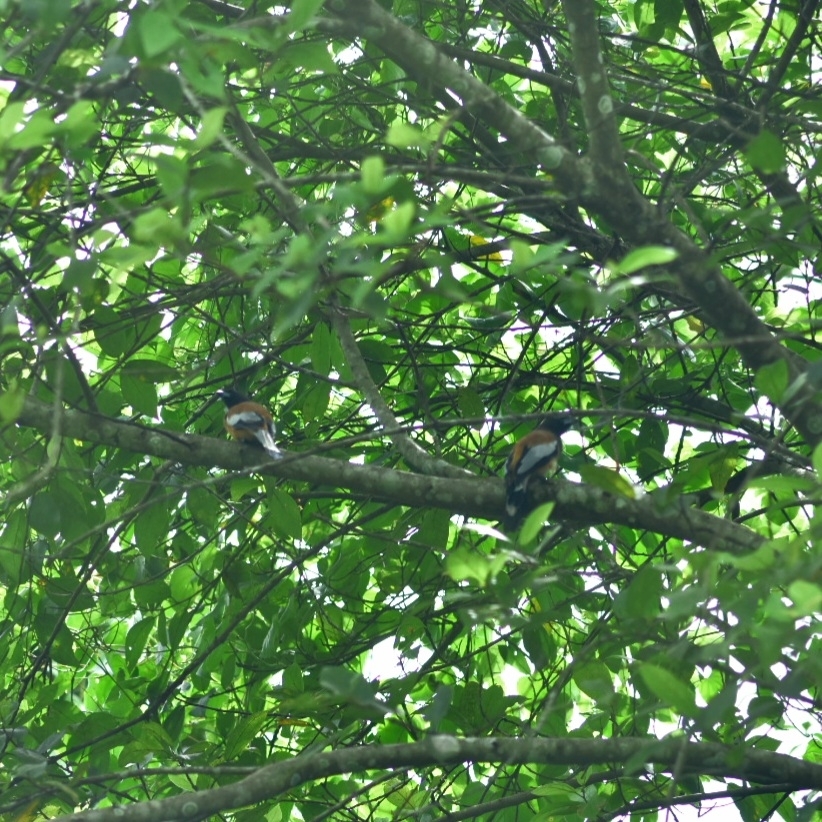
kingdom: Animalia
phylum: Chordata
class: Aves
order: Passeriformes
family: Corvidae
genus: Dendrocitta
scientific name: Dendrocitta vagabunda
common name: Rufous treepie
